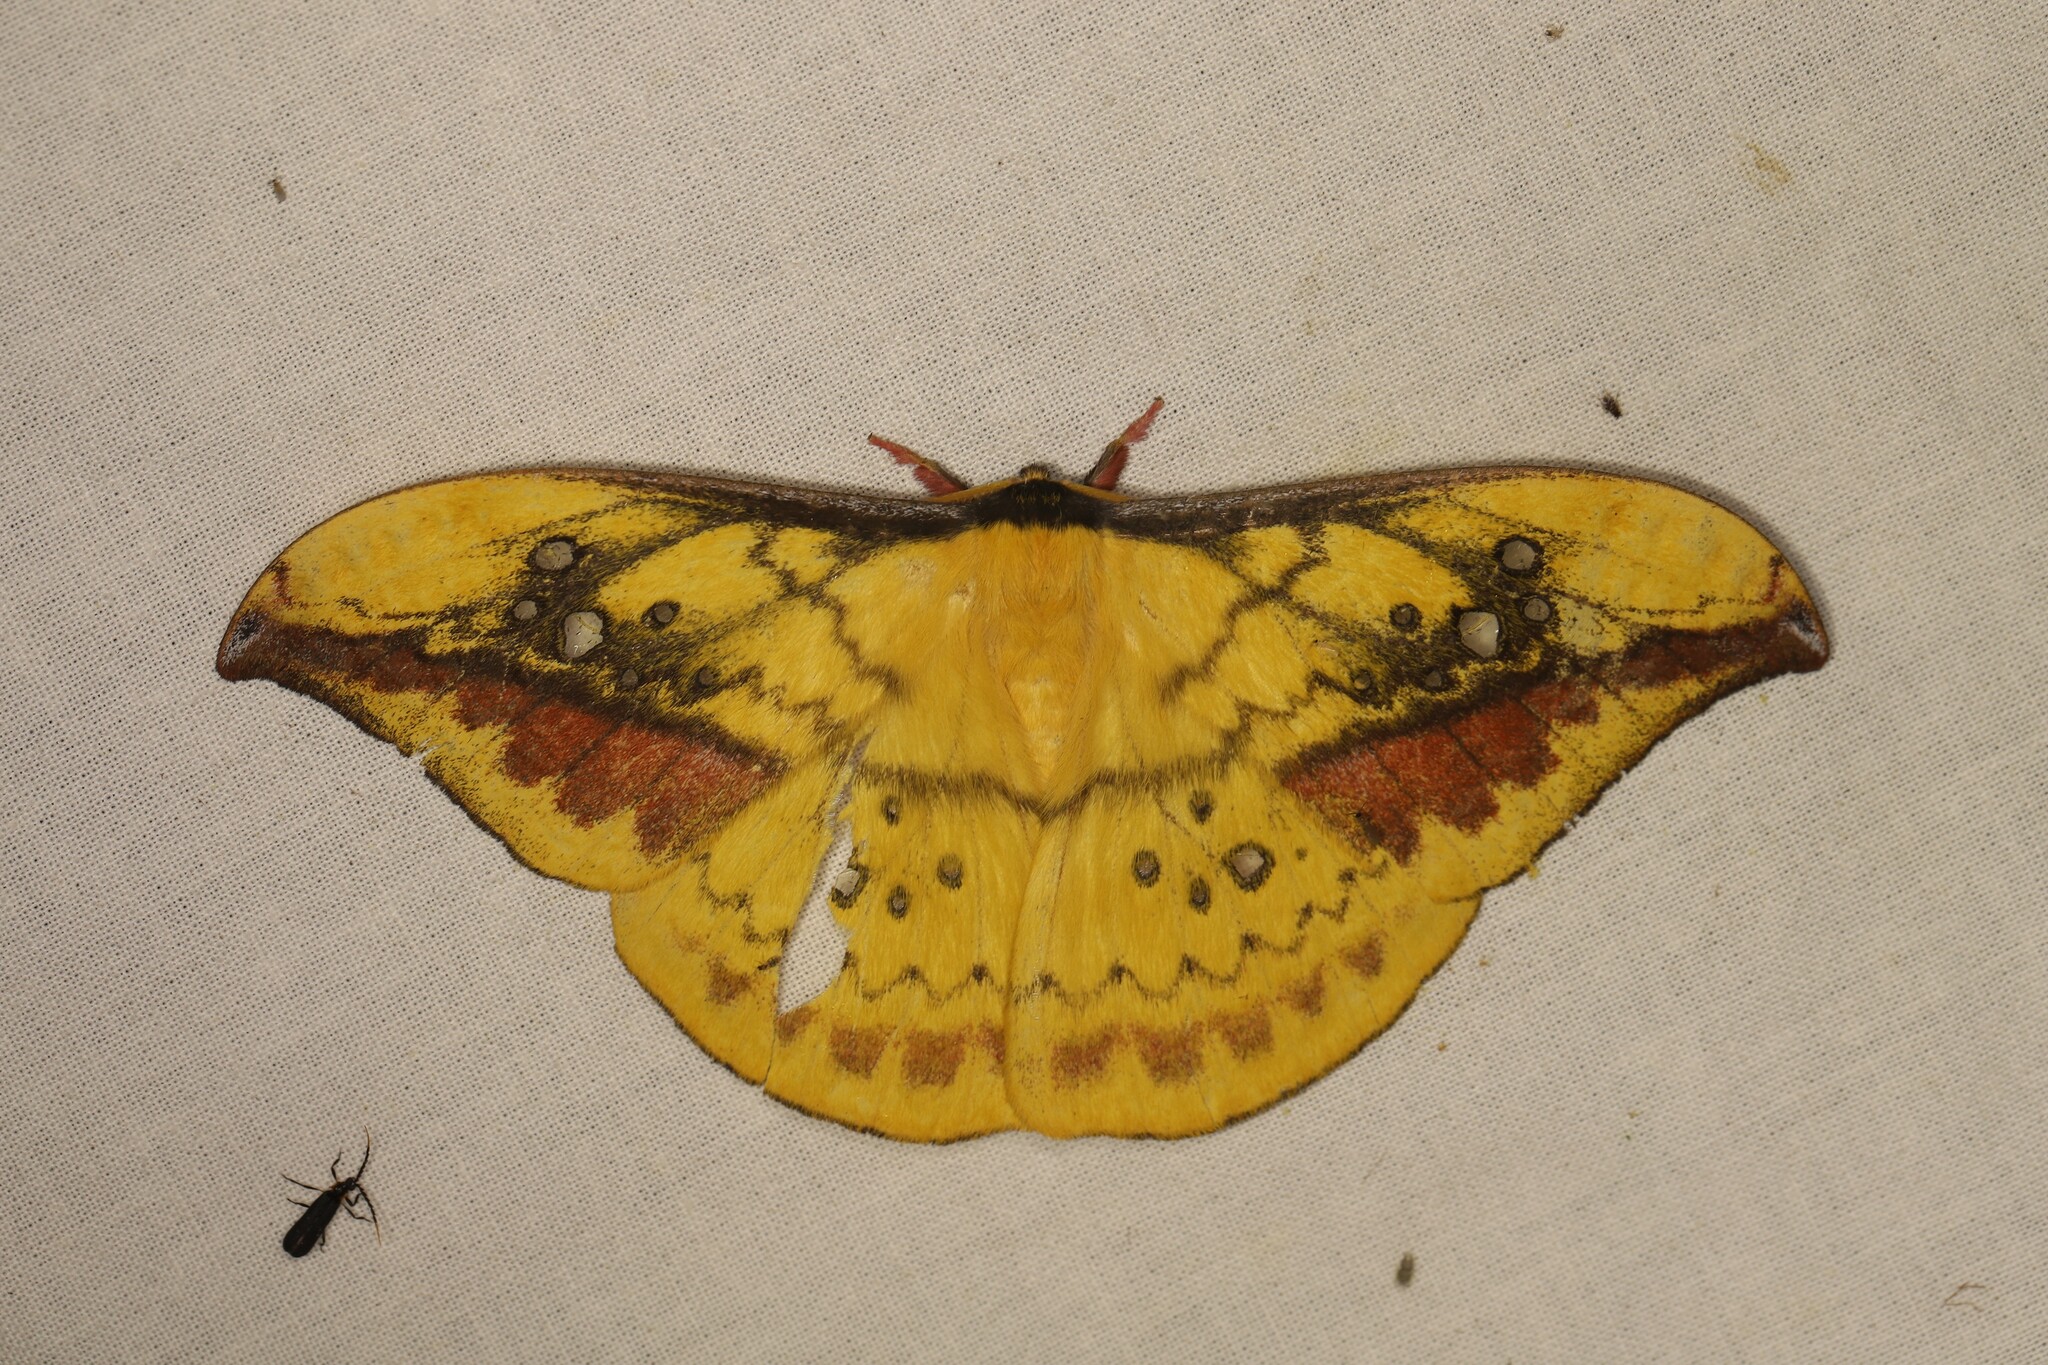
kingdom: Animalia
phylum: Arthropoda
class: Insecta
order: Lepidoptera
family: Saturniidae
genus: Copaxa
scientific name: Copaxa multifenestrata
